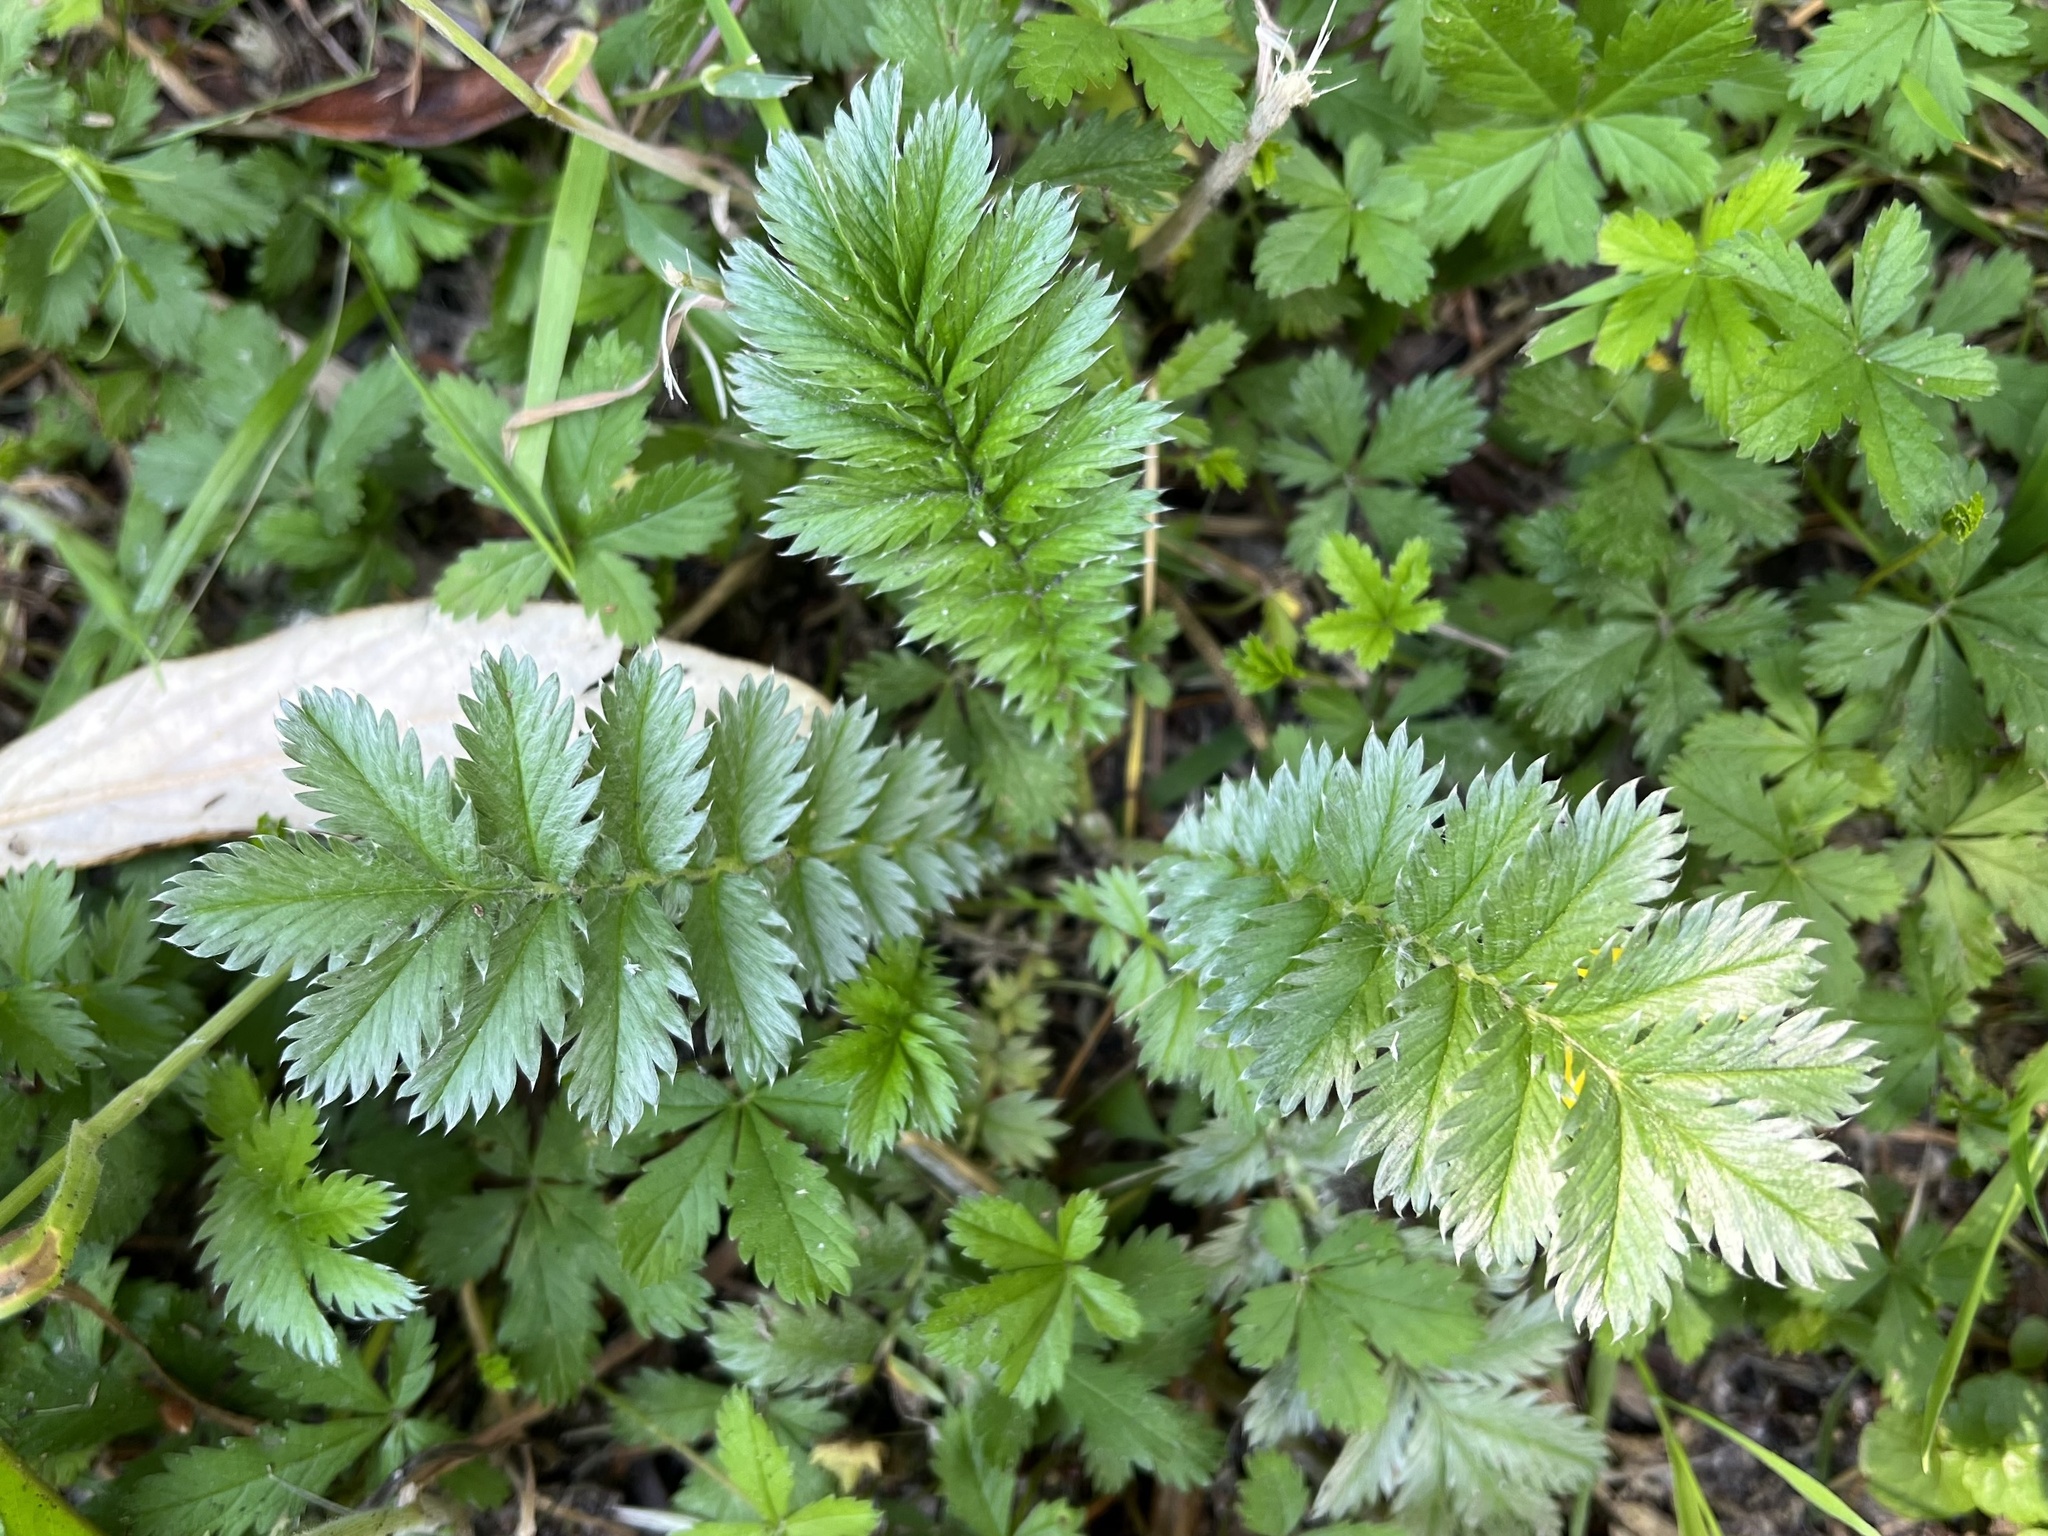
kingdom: Plantae
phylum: Tracheophyta
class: Magnoliopsida
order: Rosales
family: Rosaceae
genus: Argentina
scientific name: Argentina anserina
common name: Common silverweed
